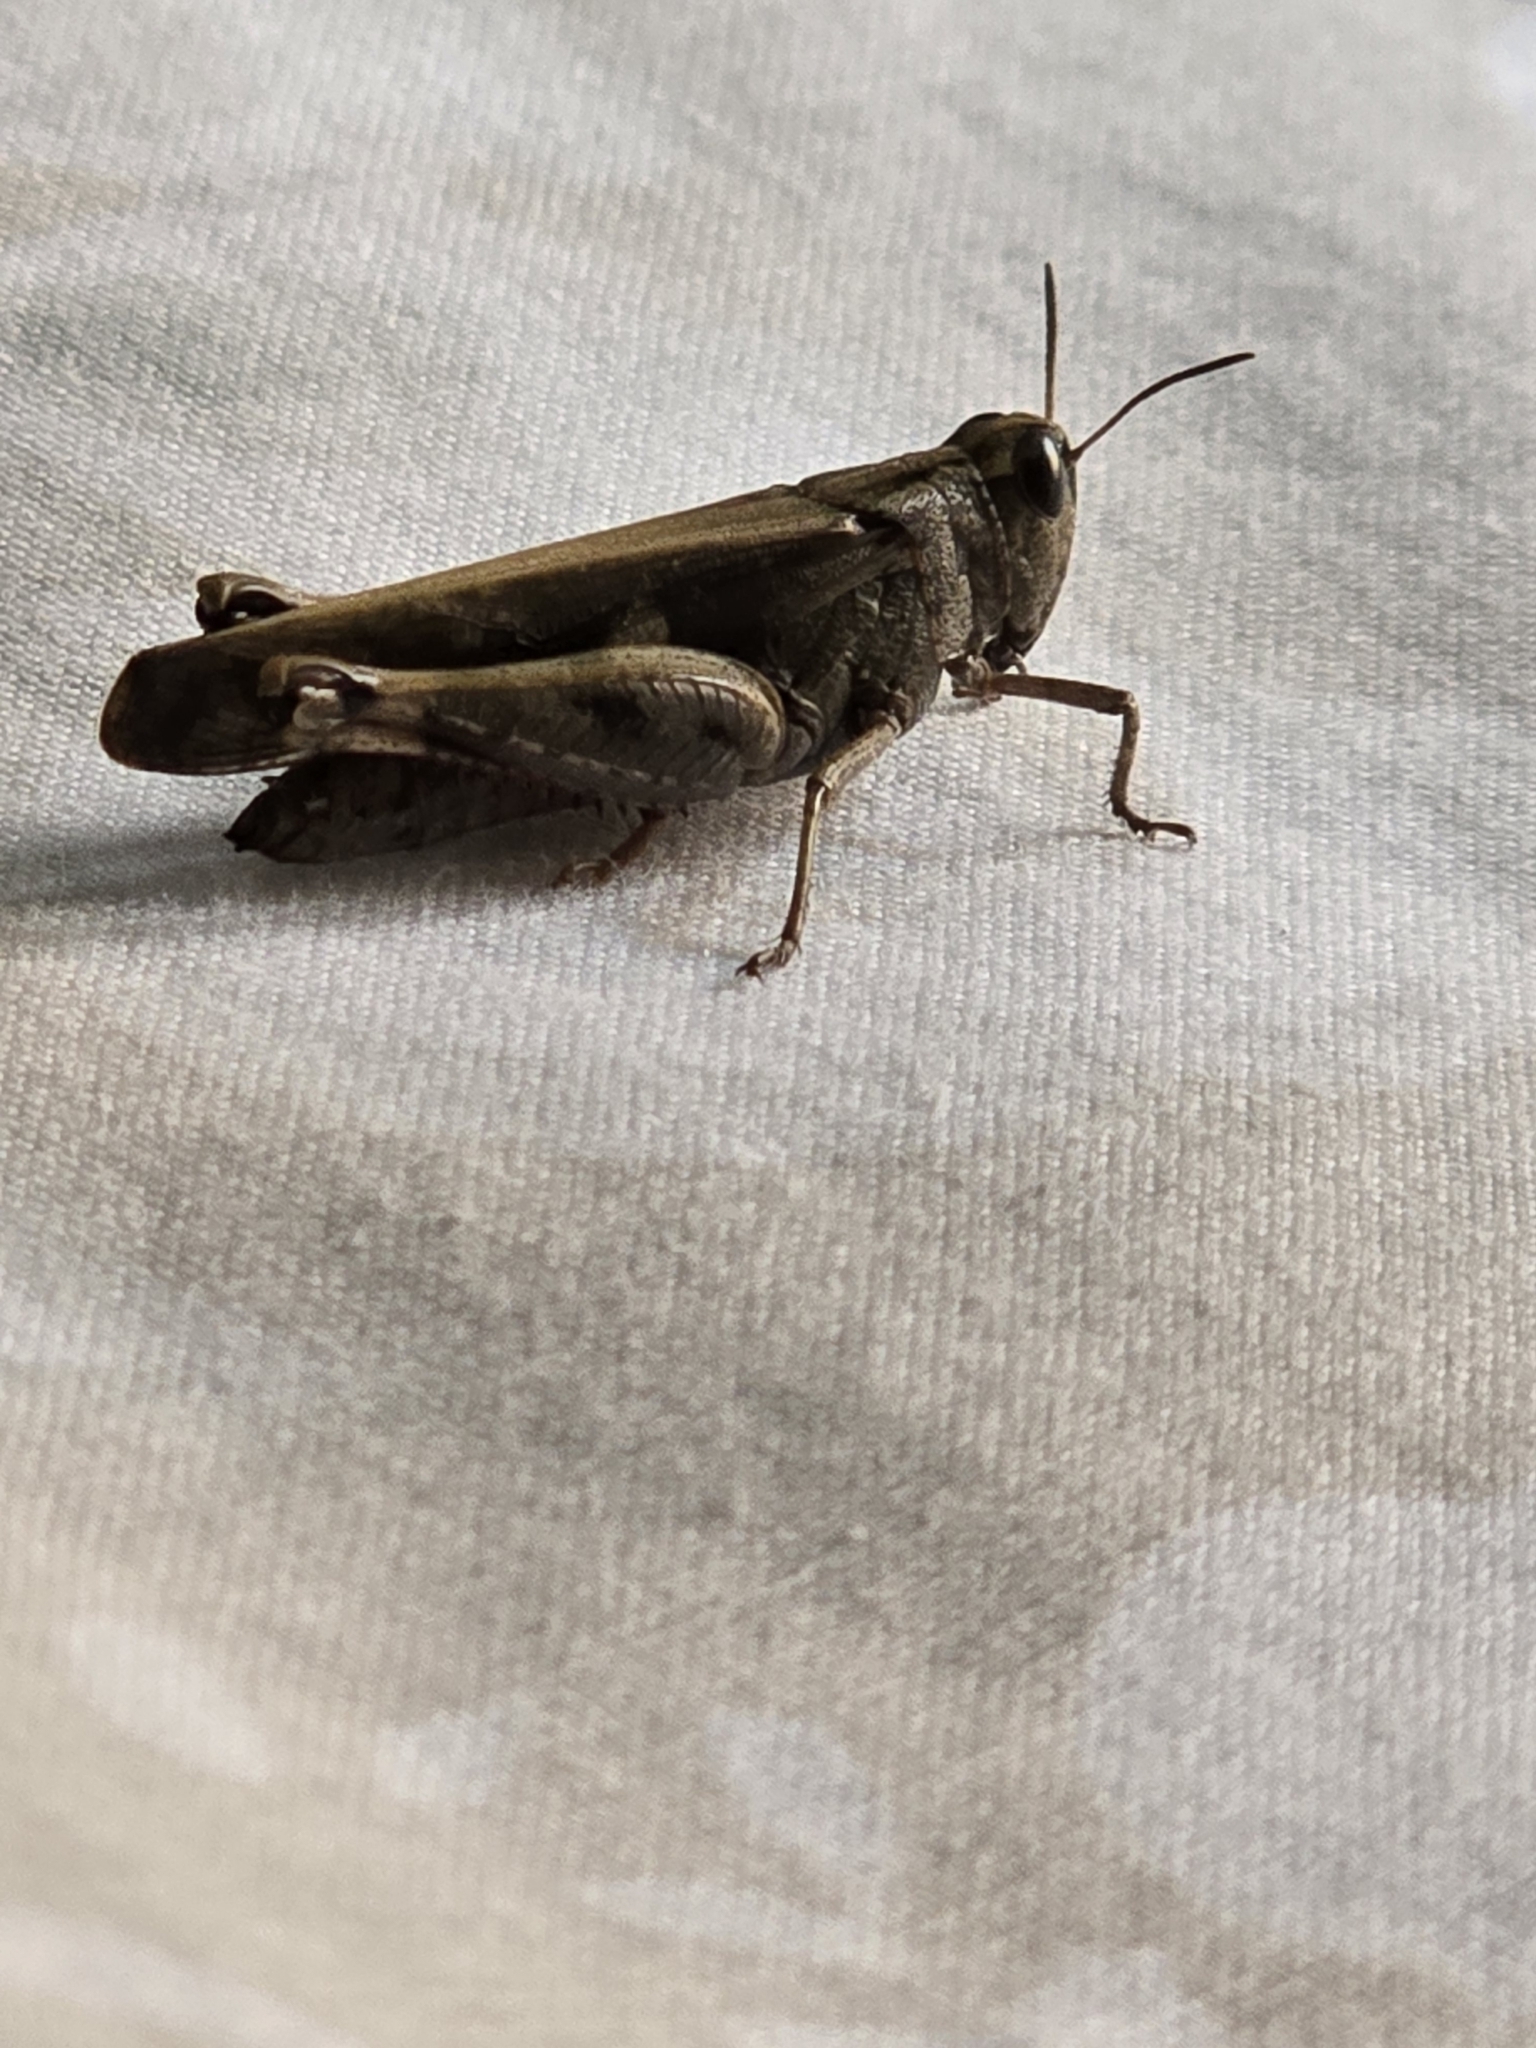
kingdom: Animalia
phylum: Arthropoda
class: Insecta
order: Orthoptera
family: Acrididae
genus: Aiolopus
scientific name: Aiolopus strepens
